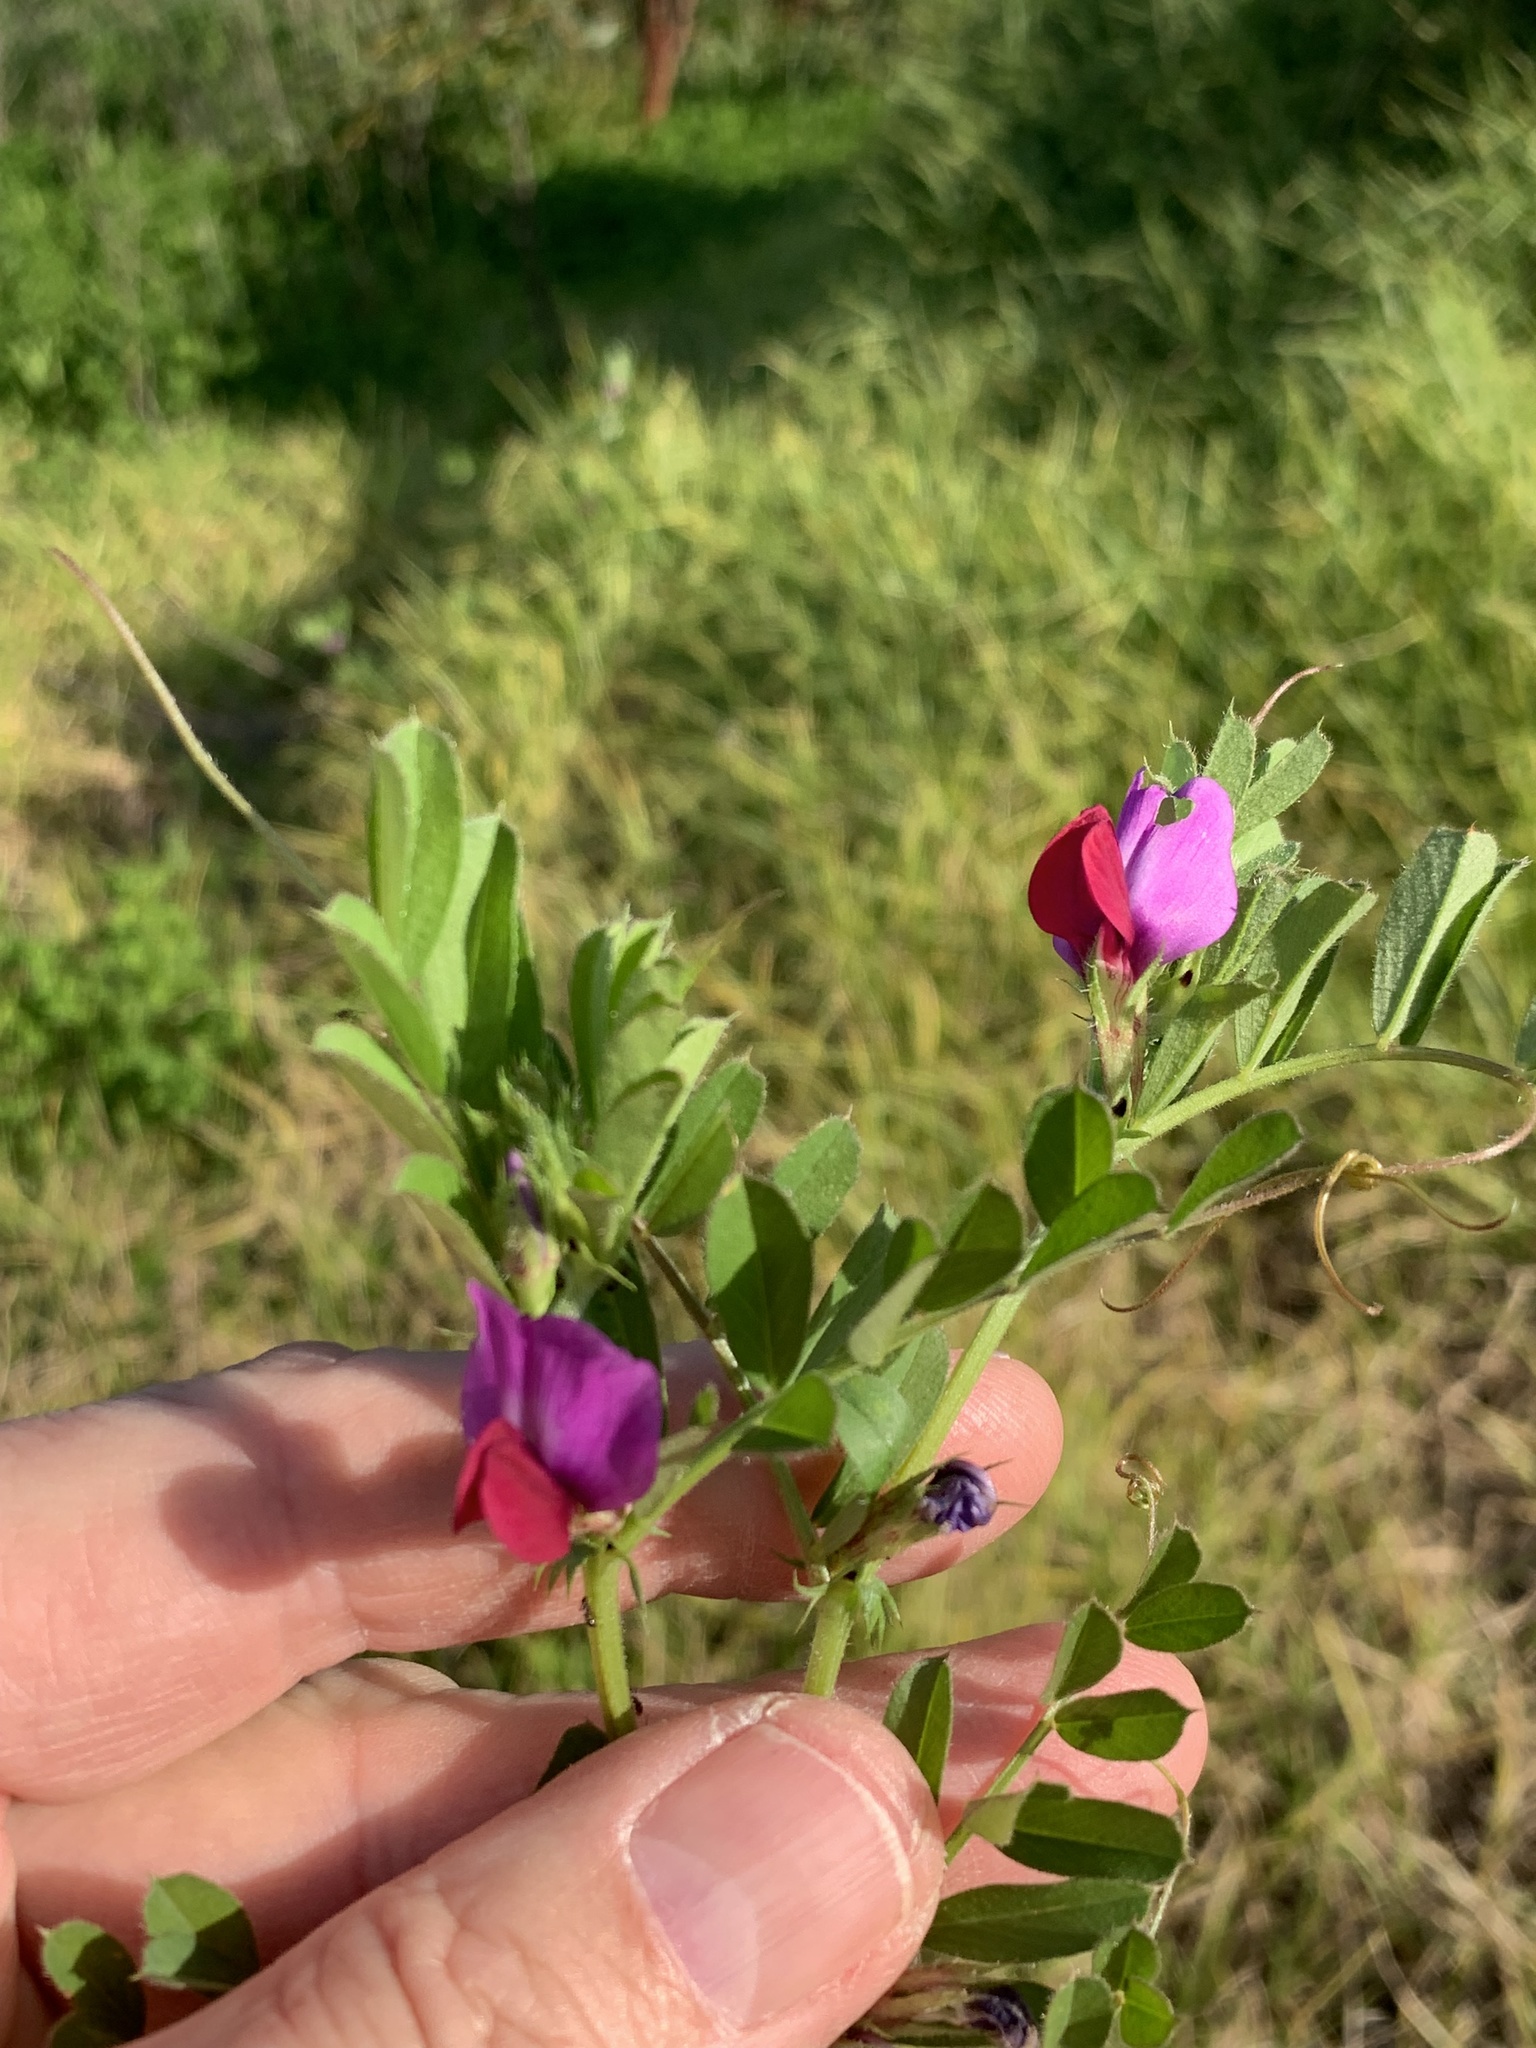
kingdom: Plantae
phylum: Tracheophyta
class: Magnoliopsida
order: Fabales
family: Fabaceae
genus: Vicia
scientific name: Vicia sativa
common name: Garden vetch
